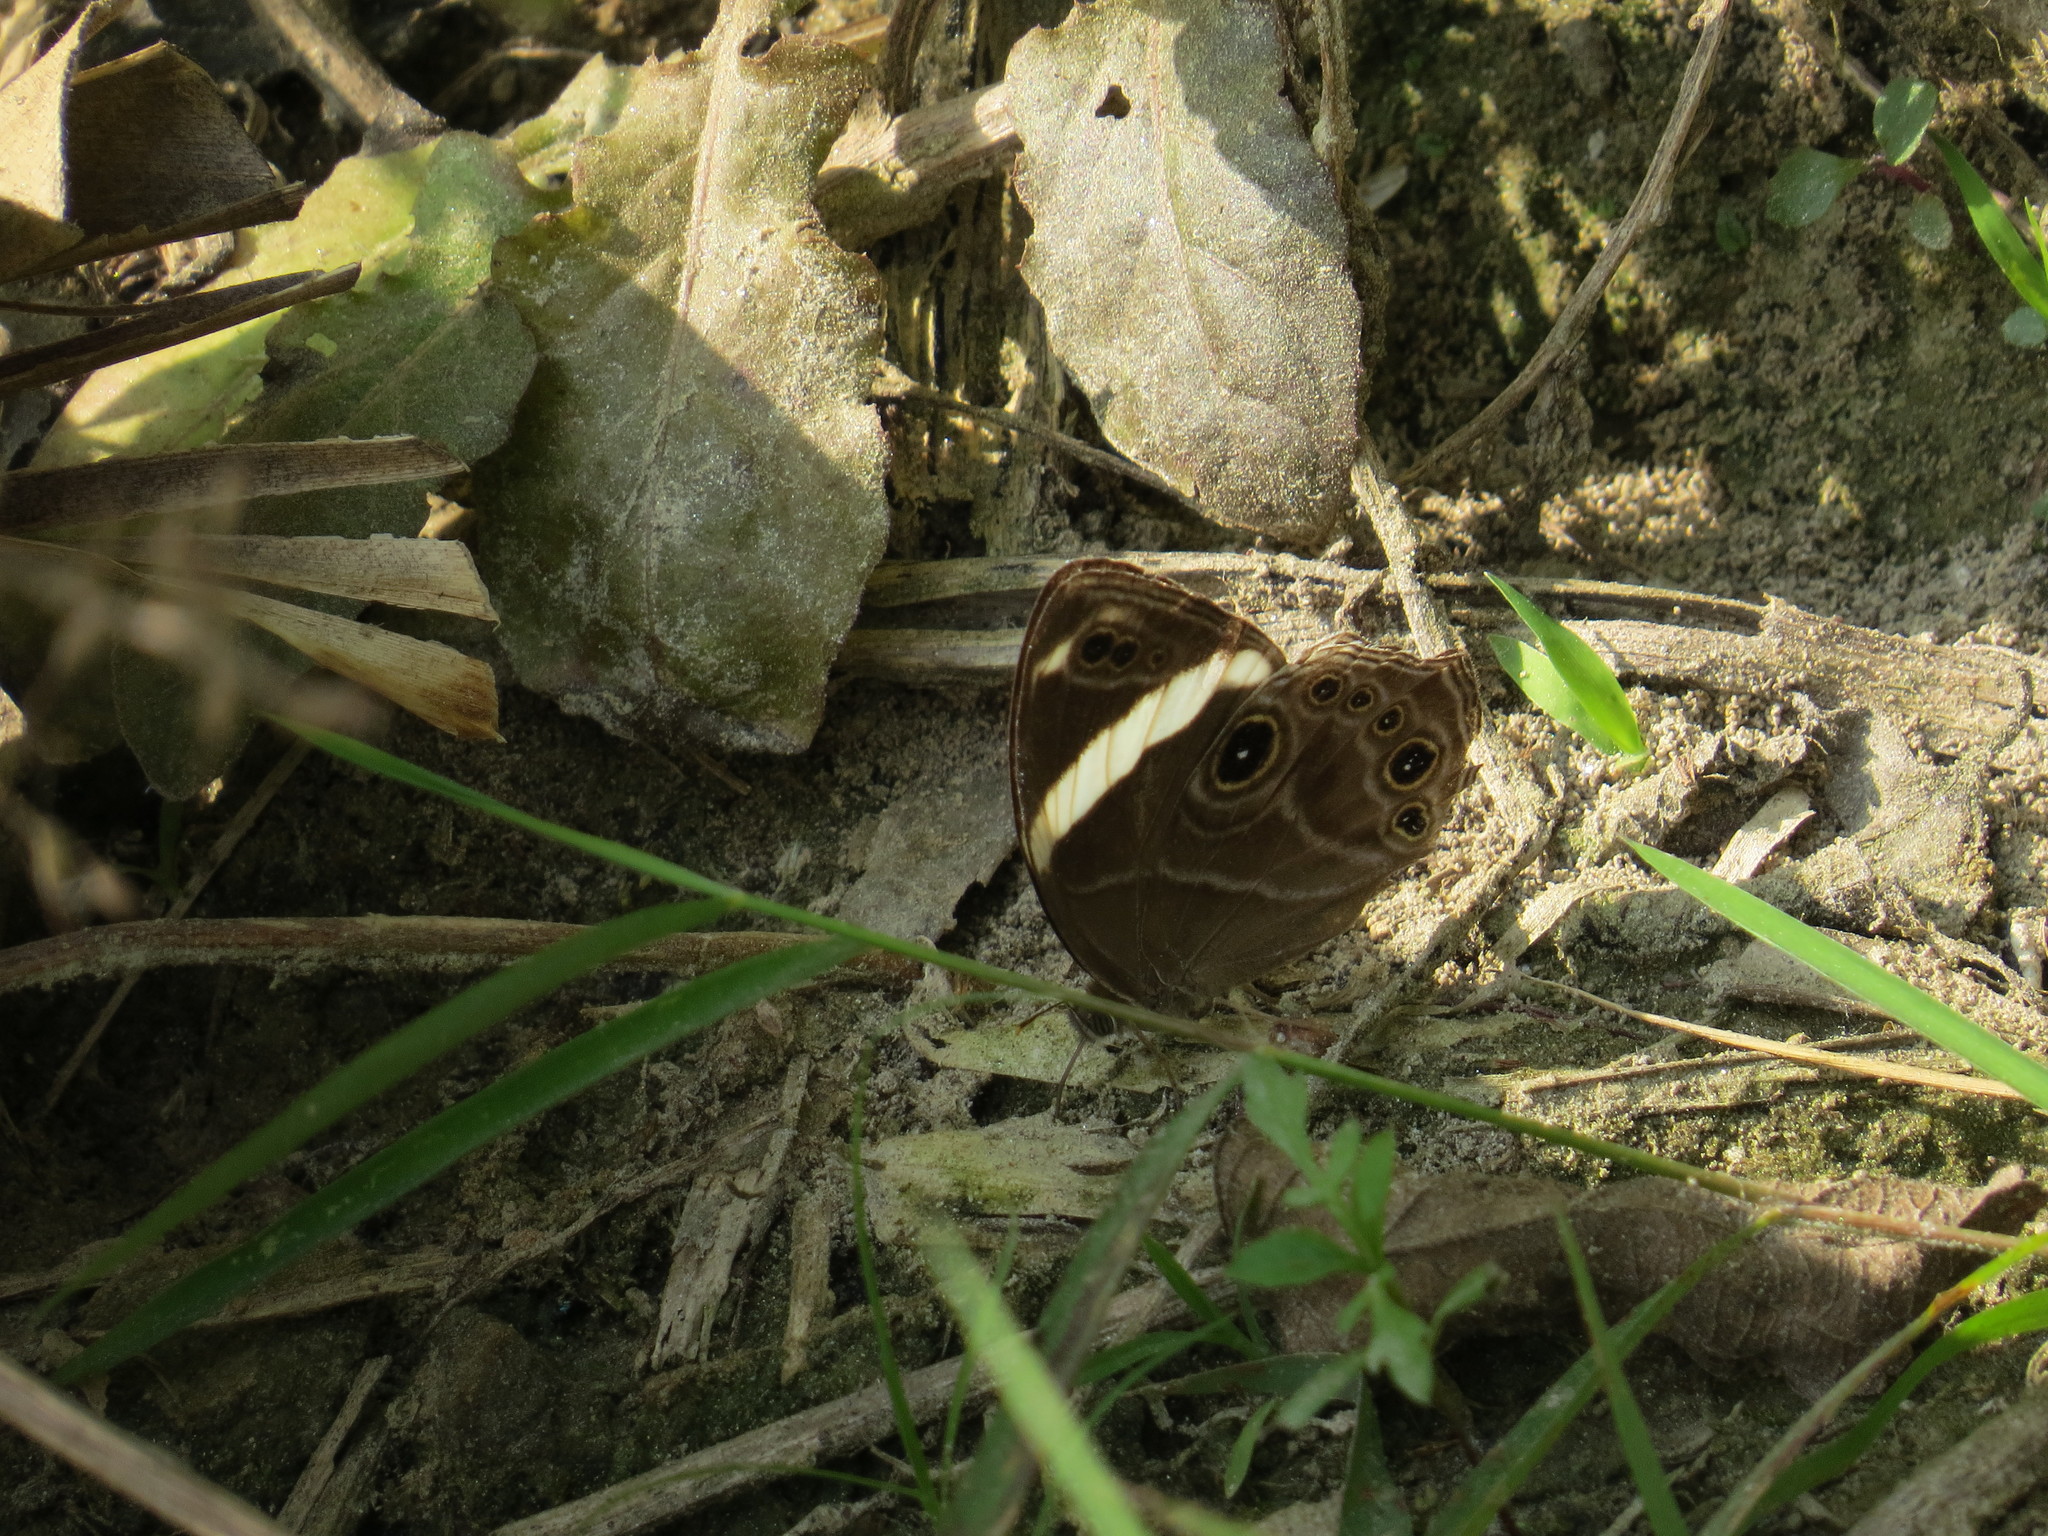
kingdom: Animalia
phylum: Arthropoda
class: Insecta
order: Lepidoptera
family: Nymphalidae
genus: Lethe
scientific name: Lethe confusa
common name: Banded treebrown
